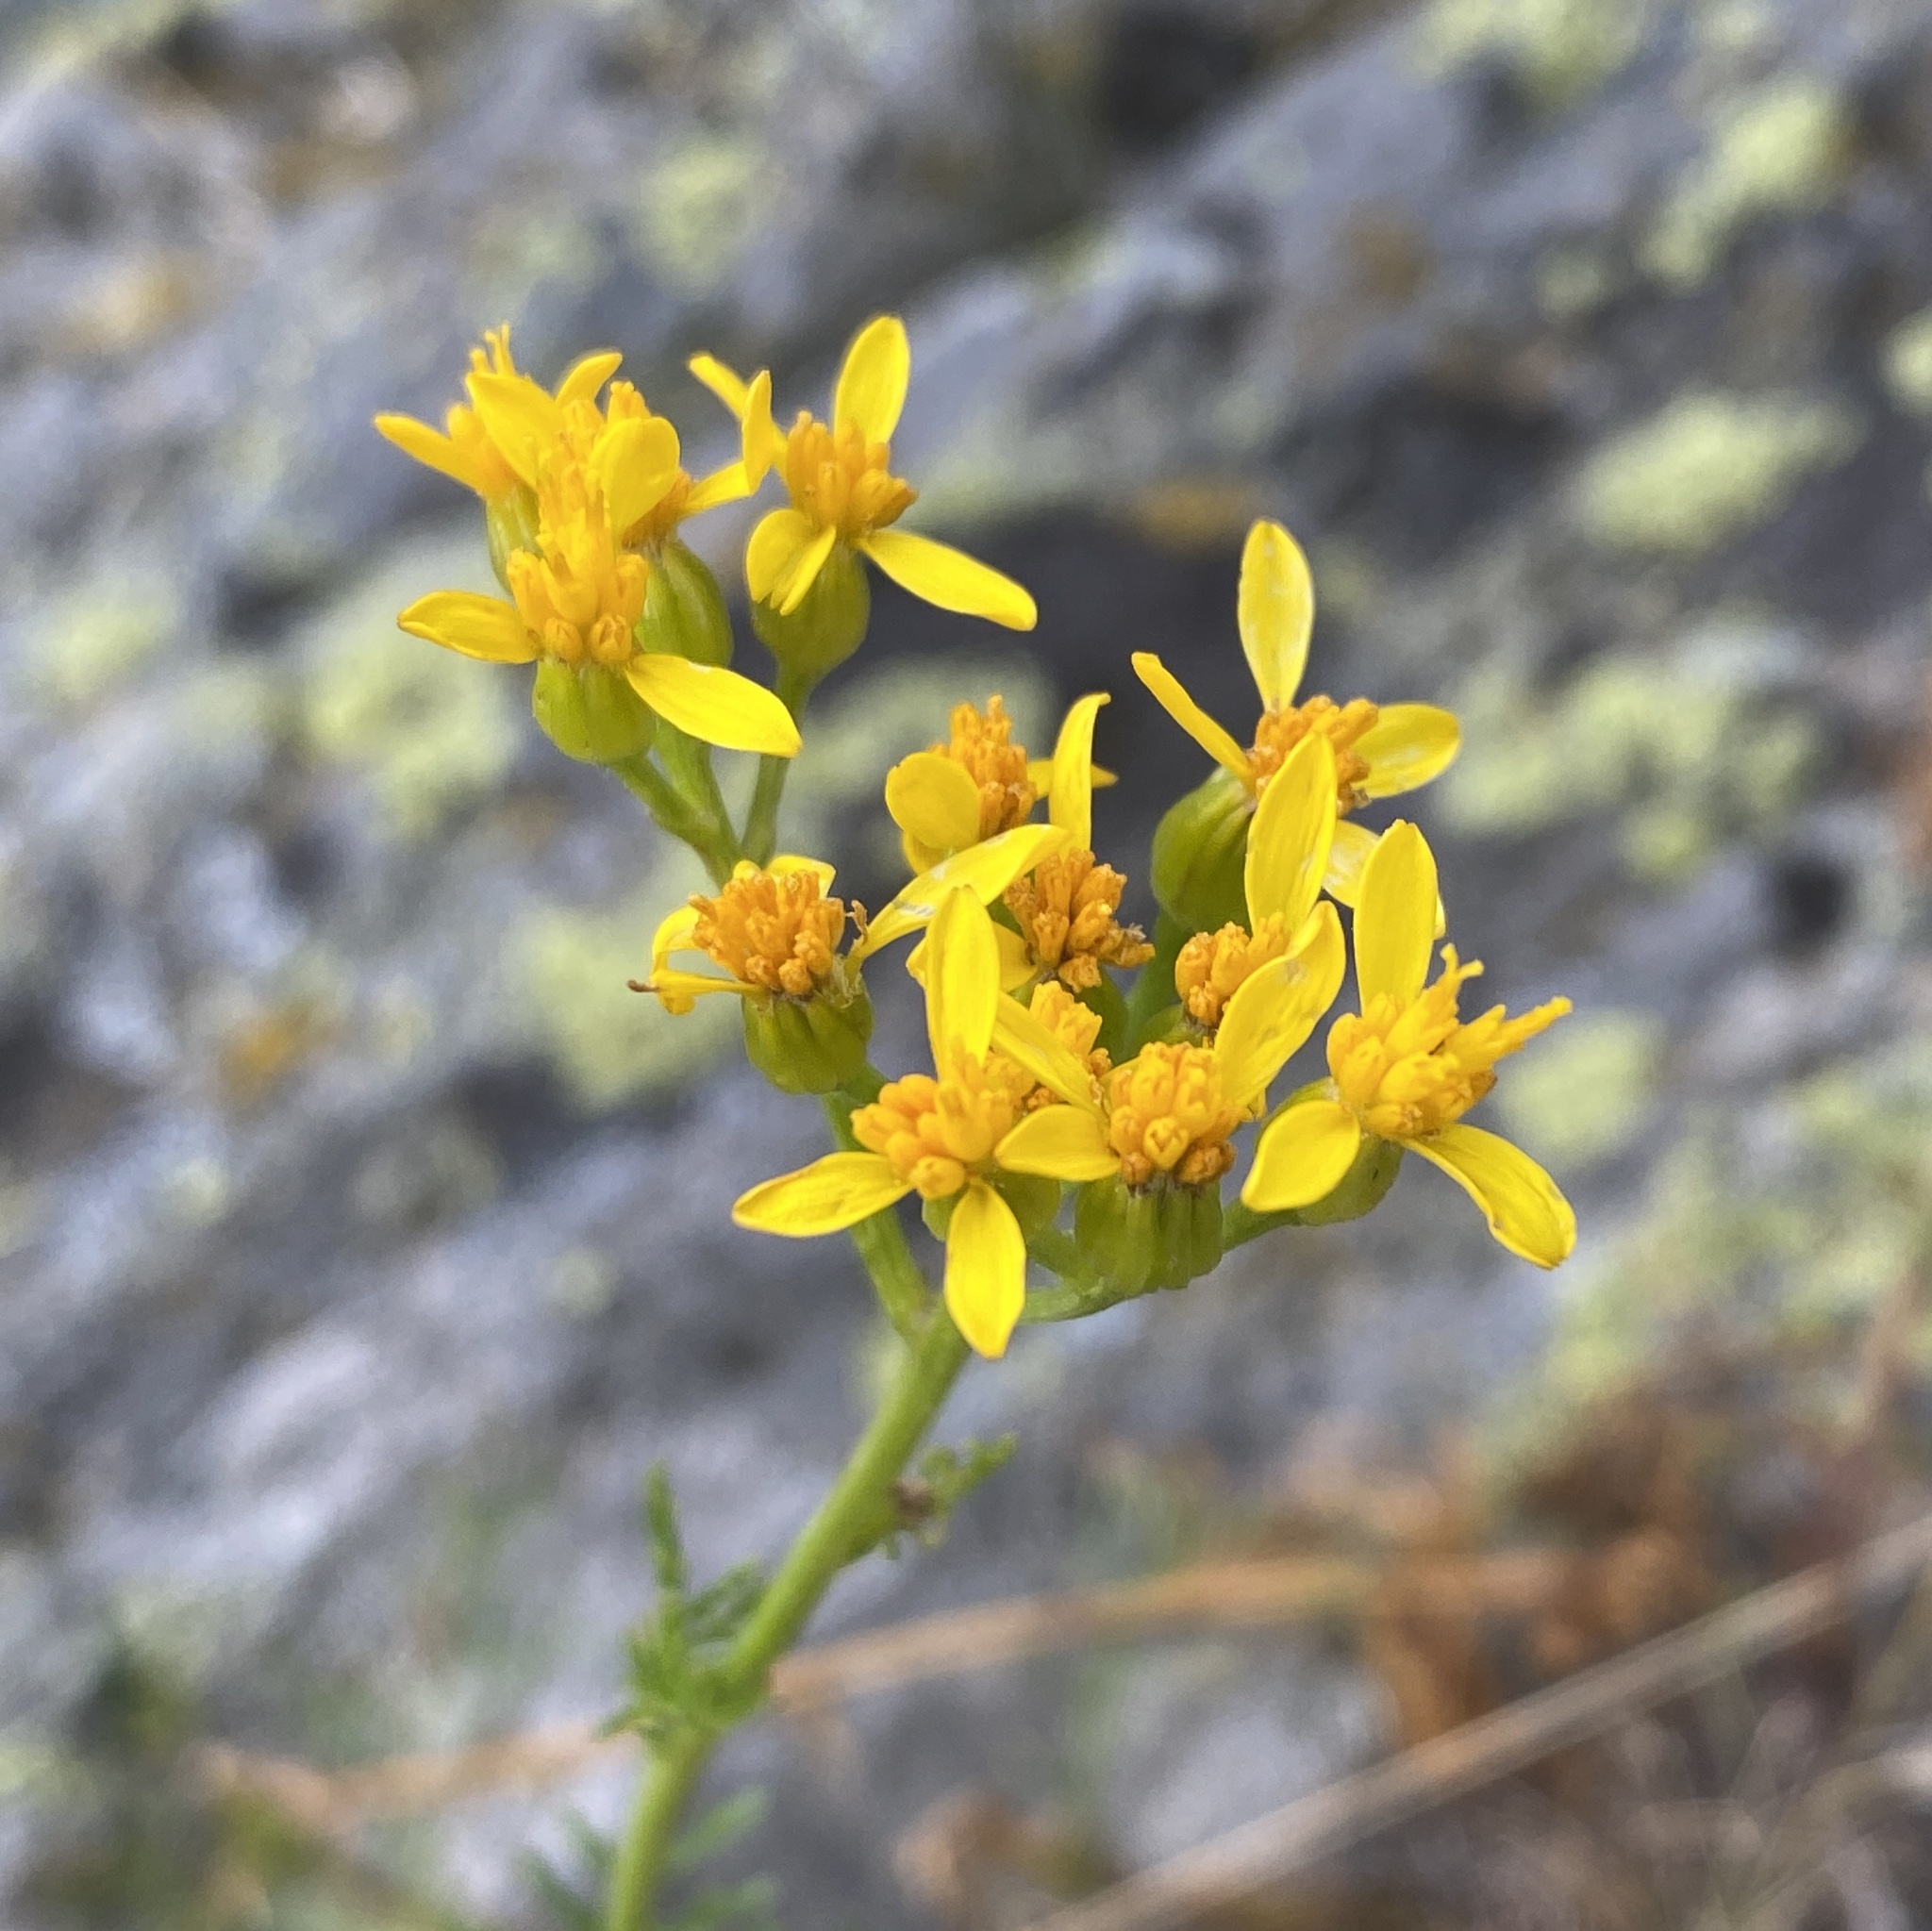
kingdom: Plantae
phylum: Tracheophyta
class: Magnoliopsida
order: Asterales
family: Asteraceae
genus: Jacobaea
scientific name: Jacobaea adonidifolia
